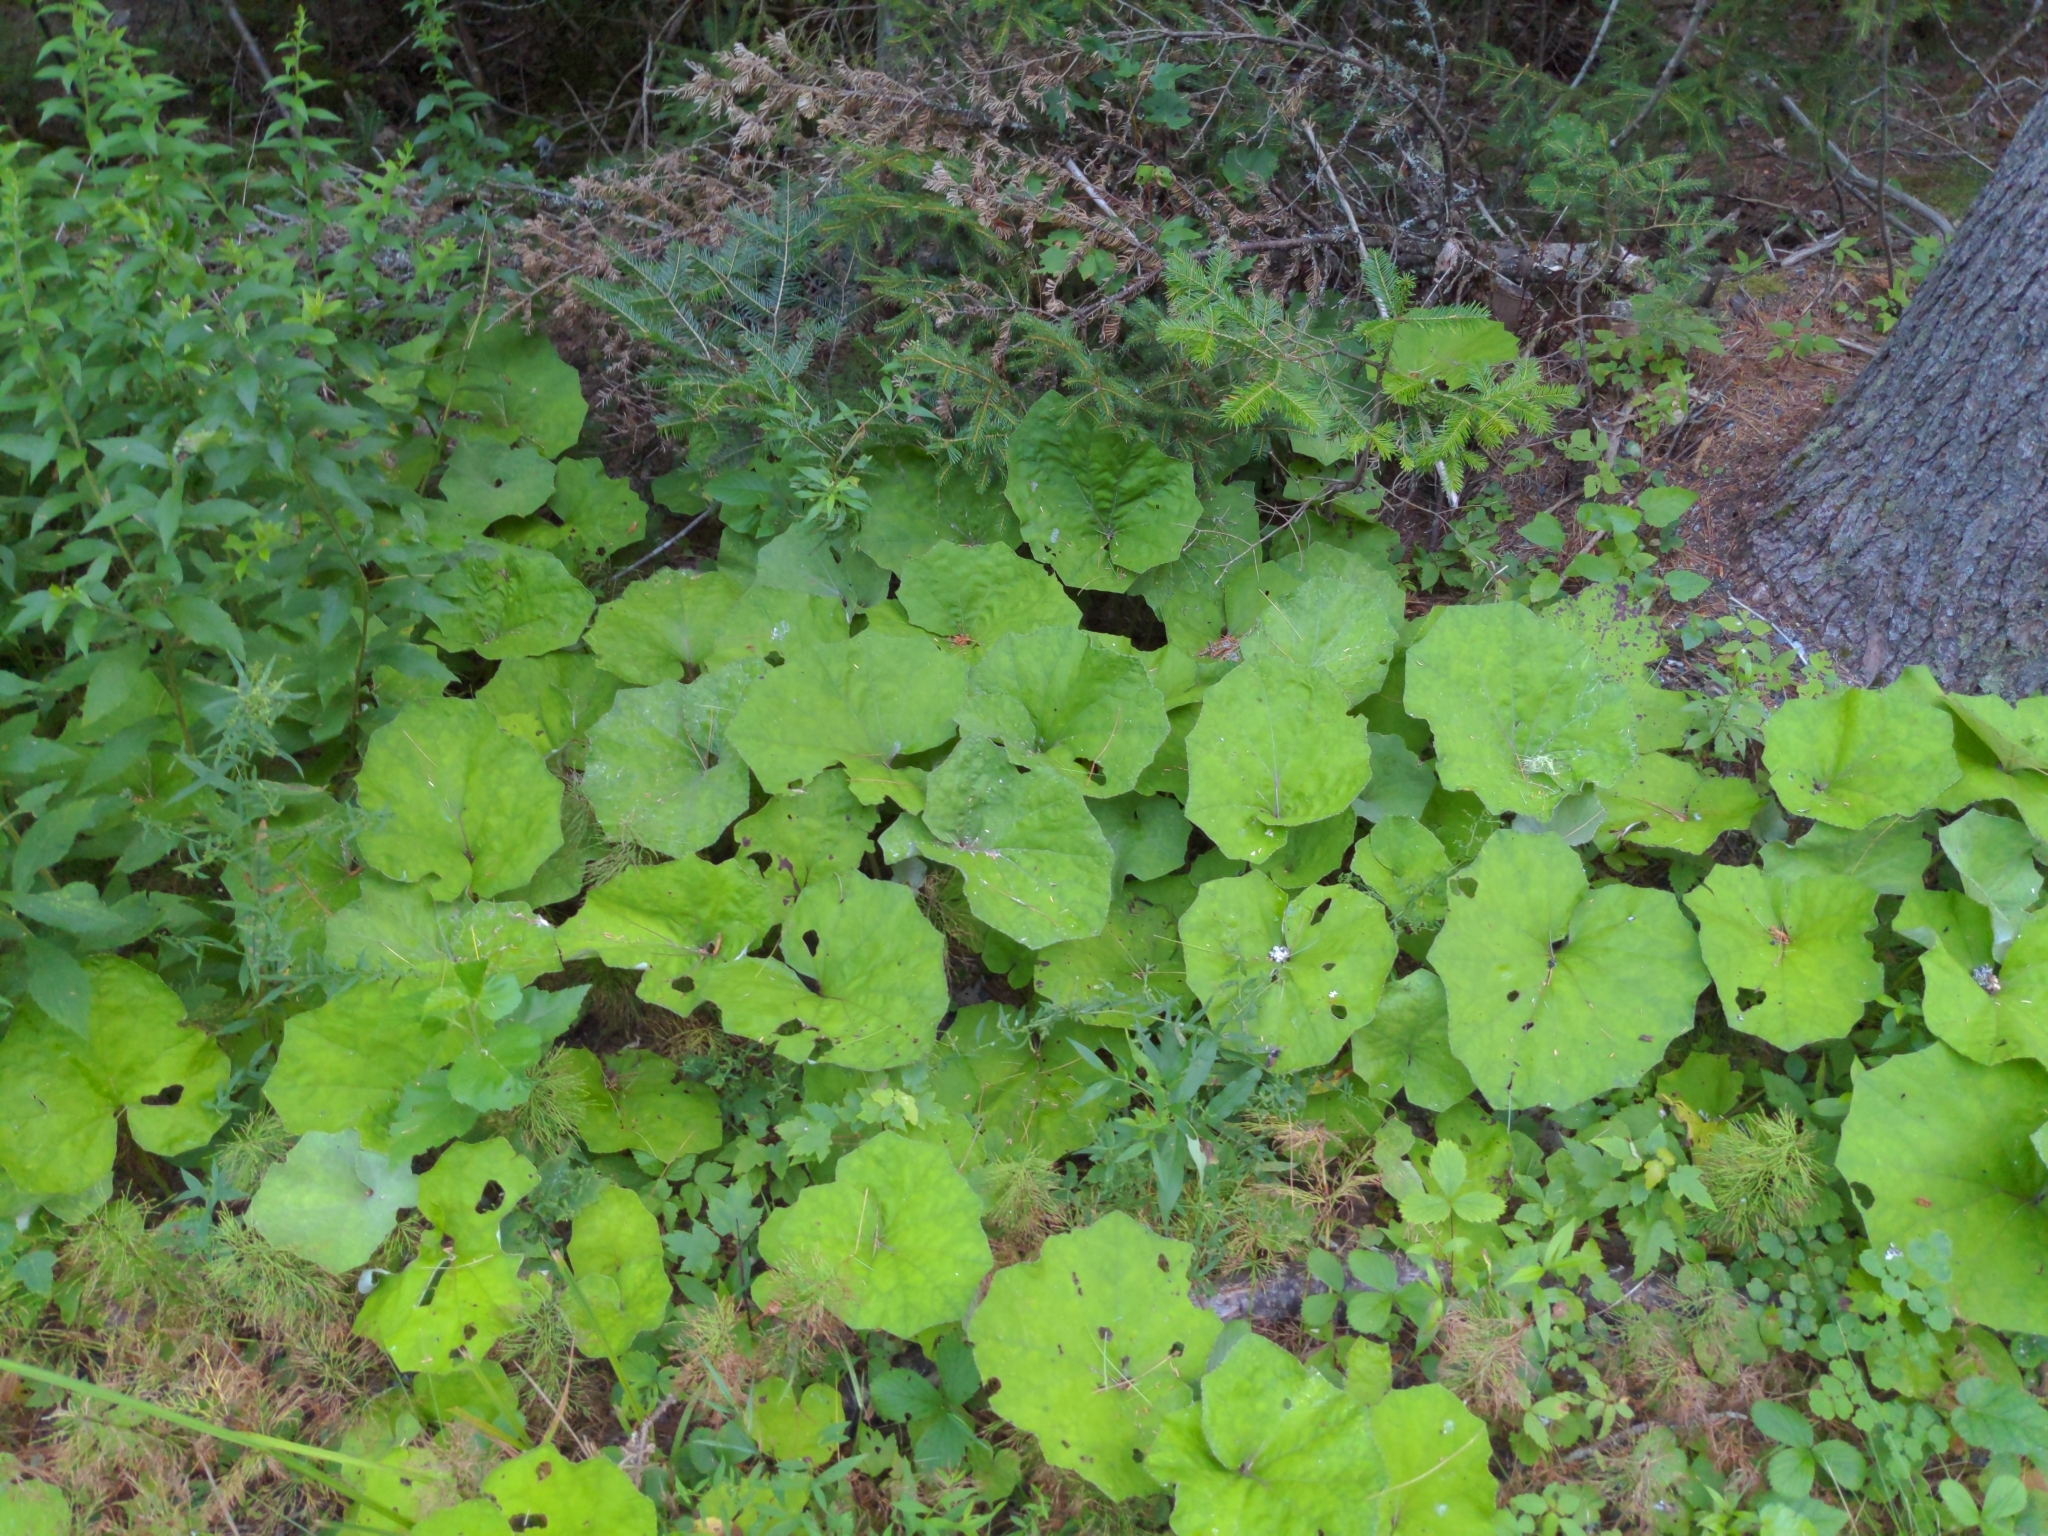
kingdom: Plantae
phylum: Tracheophyta
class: Magnoliopsida
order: Asterales
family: Asteraceae
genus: Tussilago
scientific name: Tussilago farfara
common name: Coltsfoot
